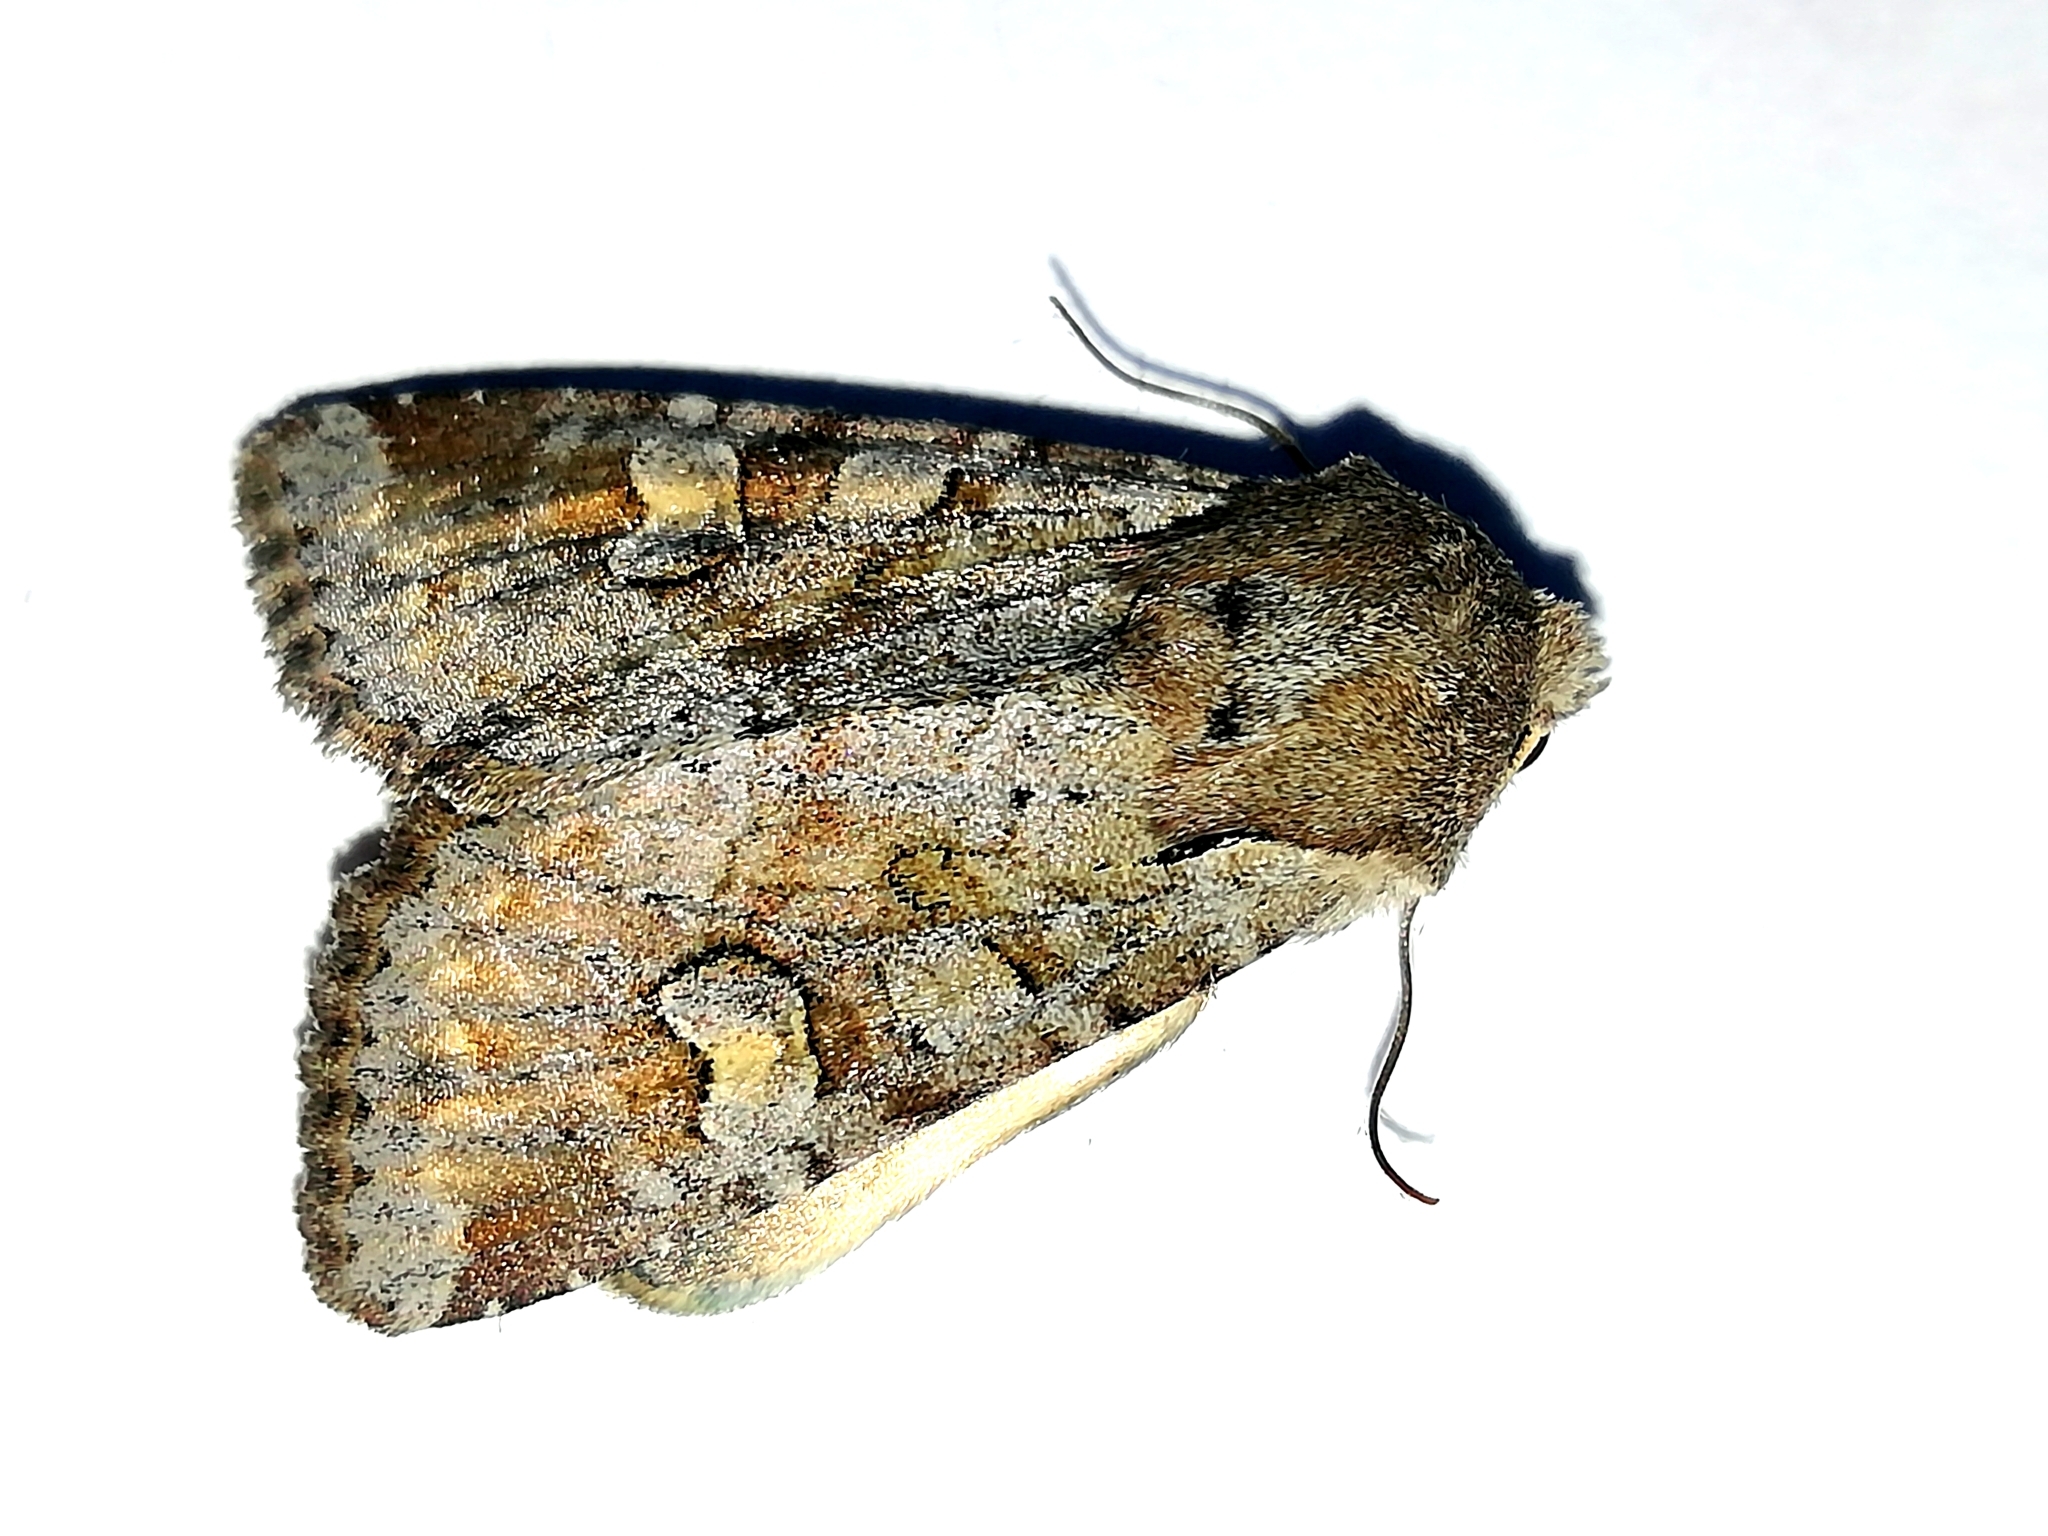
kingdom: Animalia
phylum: Arthropoda
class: Insecta
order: Lepidoptera
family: Noctuidae
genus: Apamea
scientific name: Apamea sordens
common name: Rustic shoulder-knot
